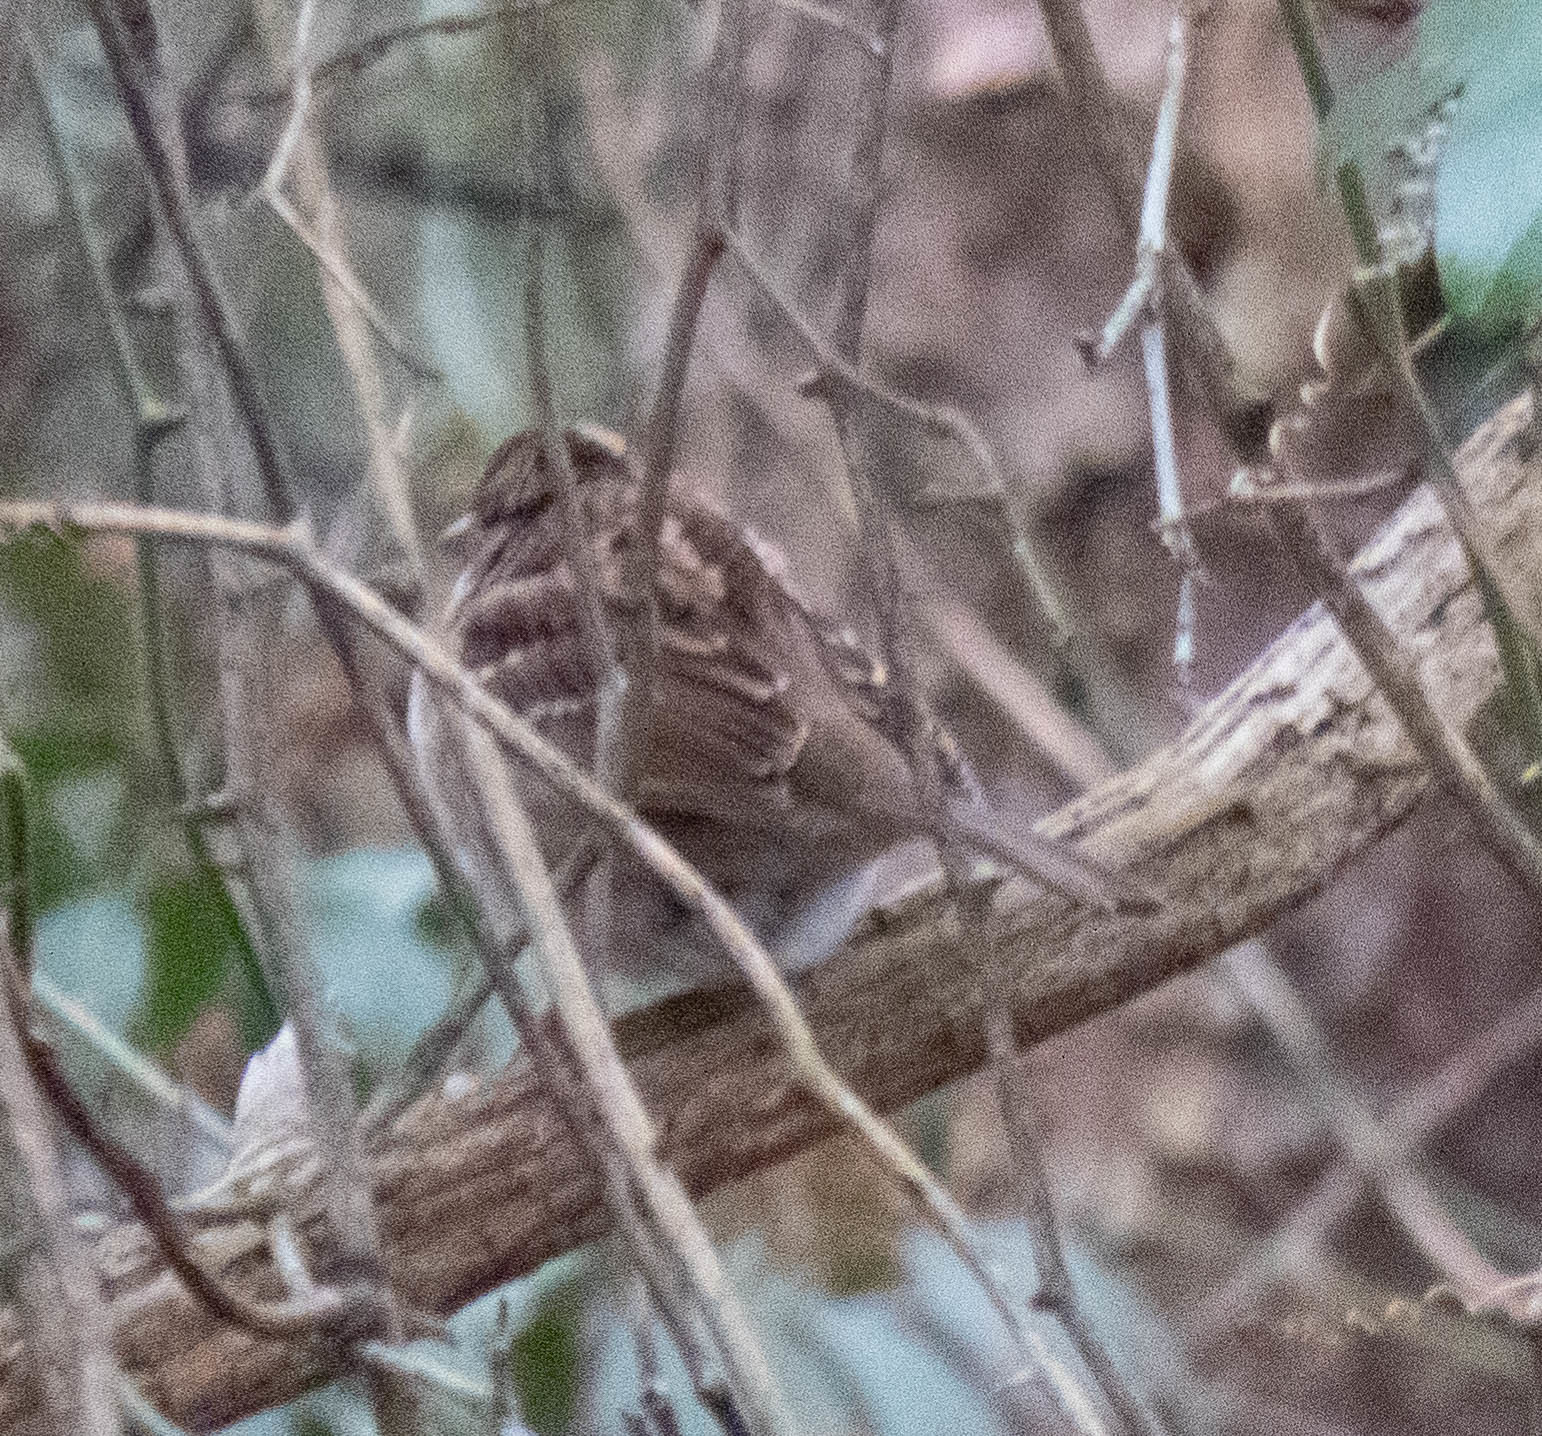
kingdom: Animalia
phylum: Chordata
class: Aves
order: Passeriformes
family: Passerellidae
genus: Zonotrichia
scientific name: Zonotrichia albicollis
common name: White-throated sparrow
